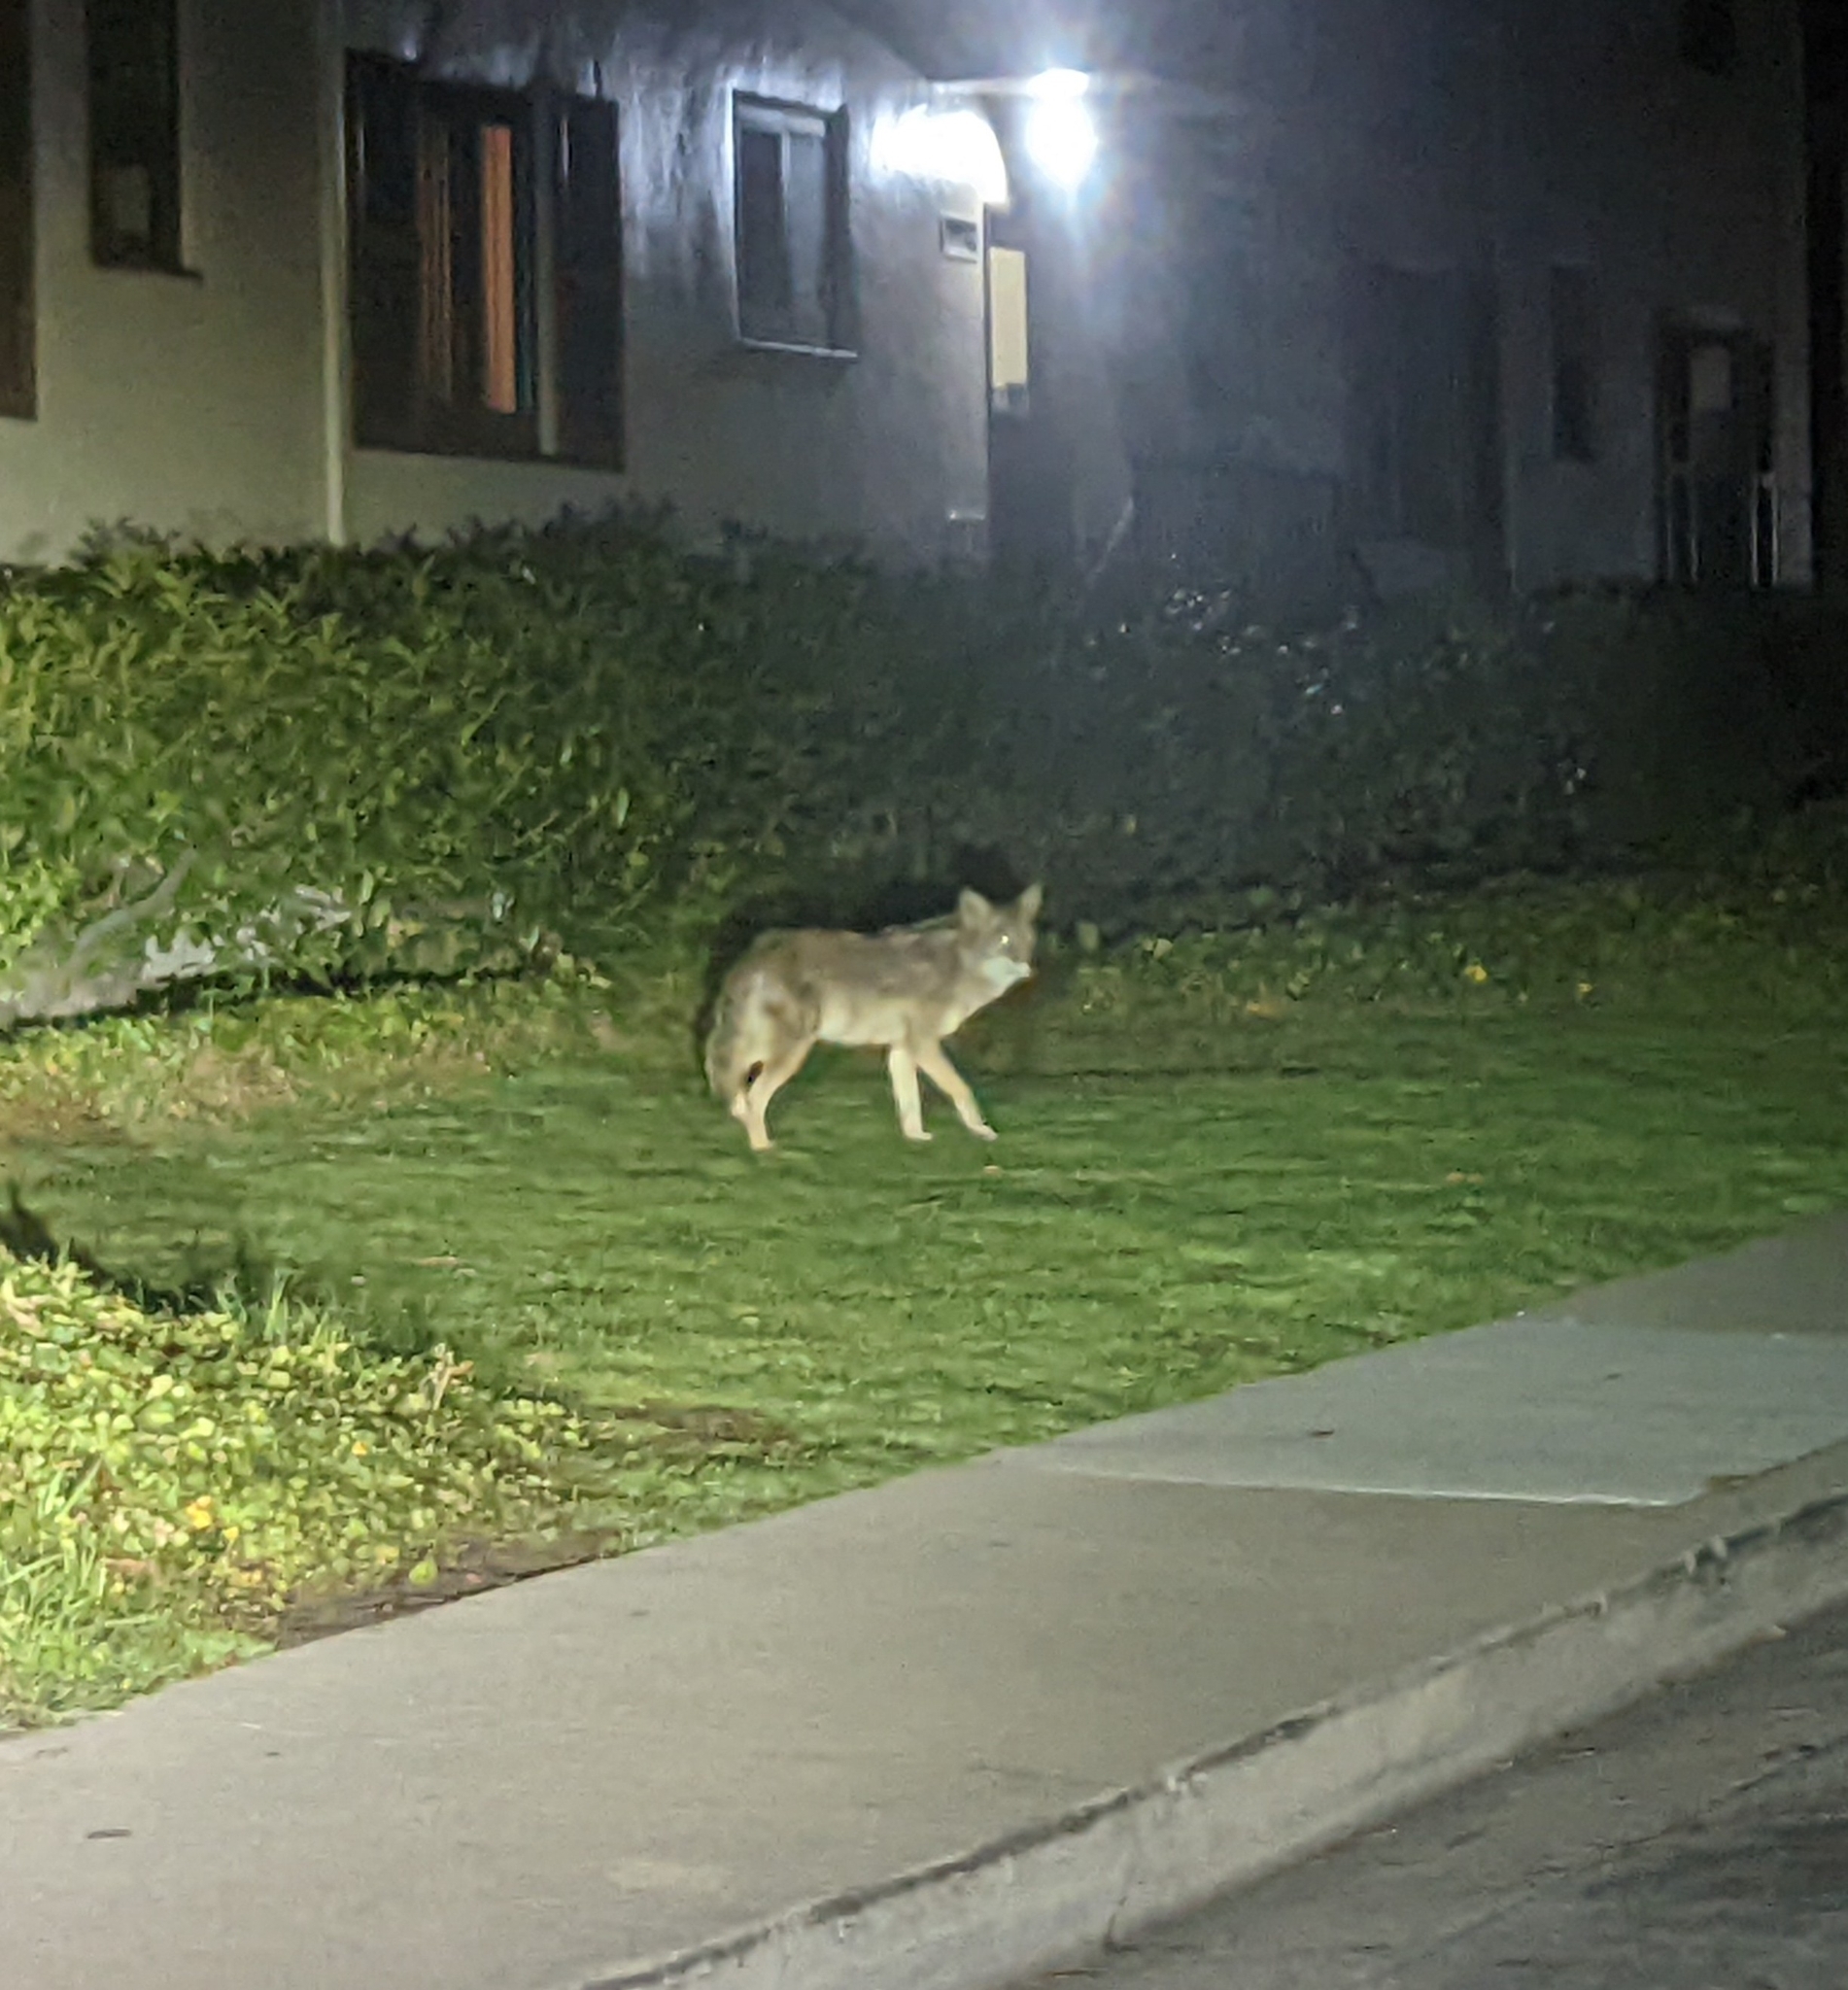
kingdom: Animalia
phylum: Chordata
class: Mammalia
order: Carnivora
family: Canidae
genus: Canis
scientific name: Canis latrans
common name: Coyote
